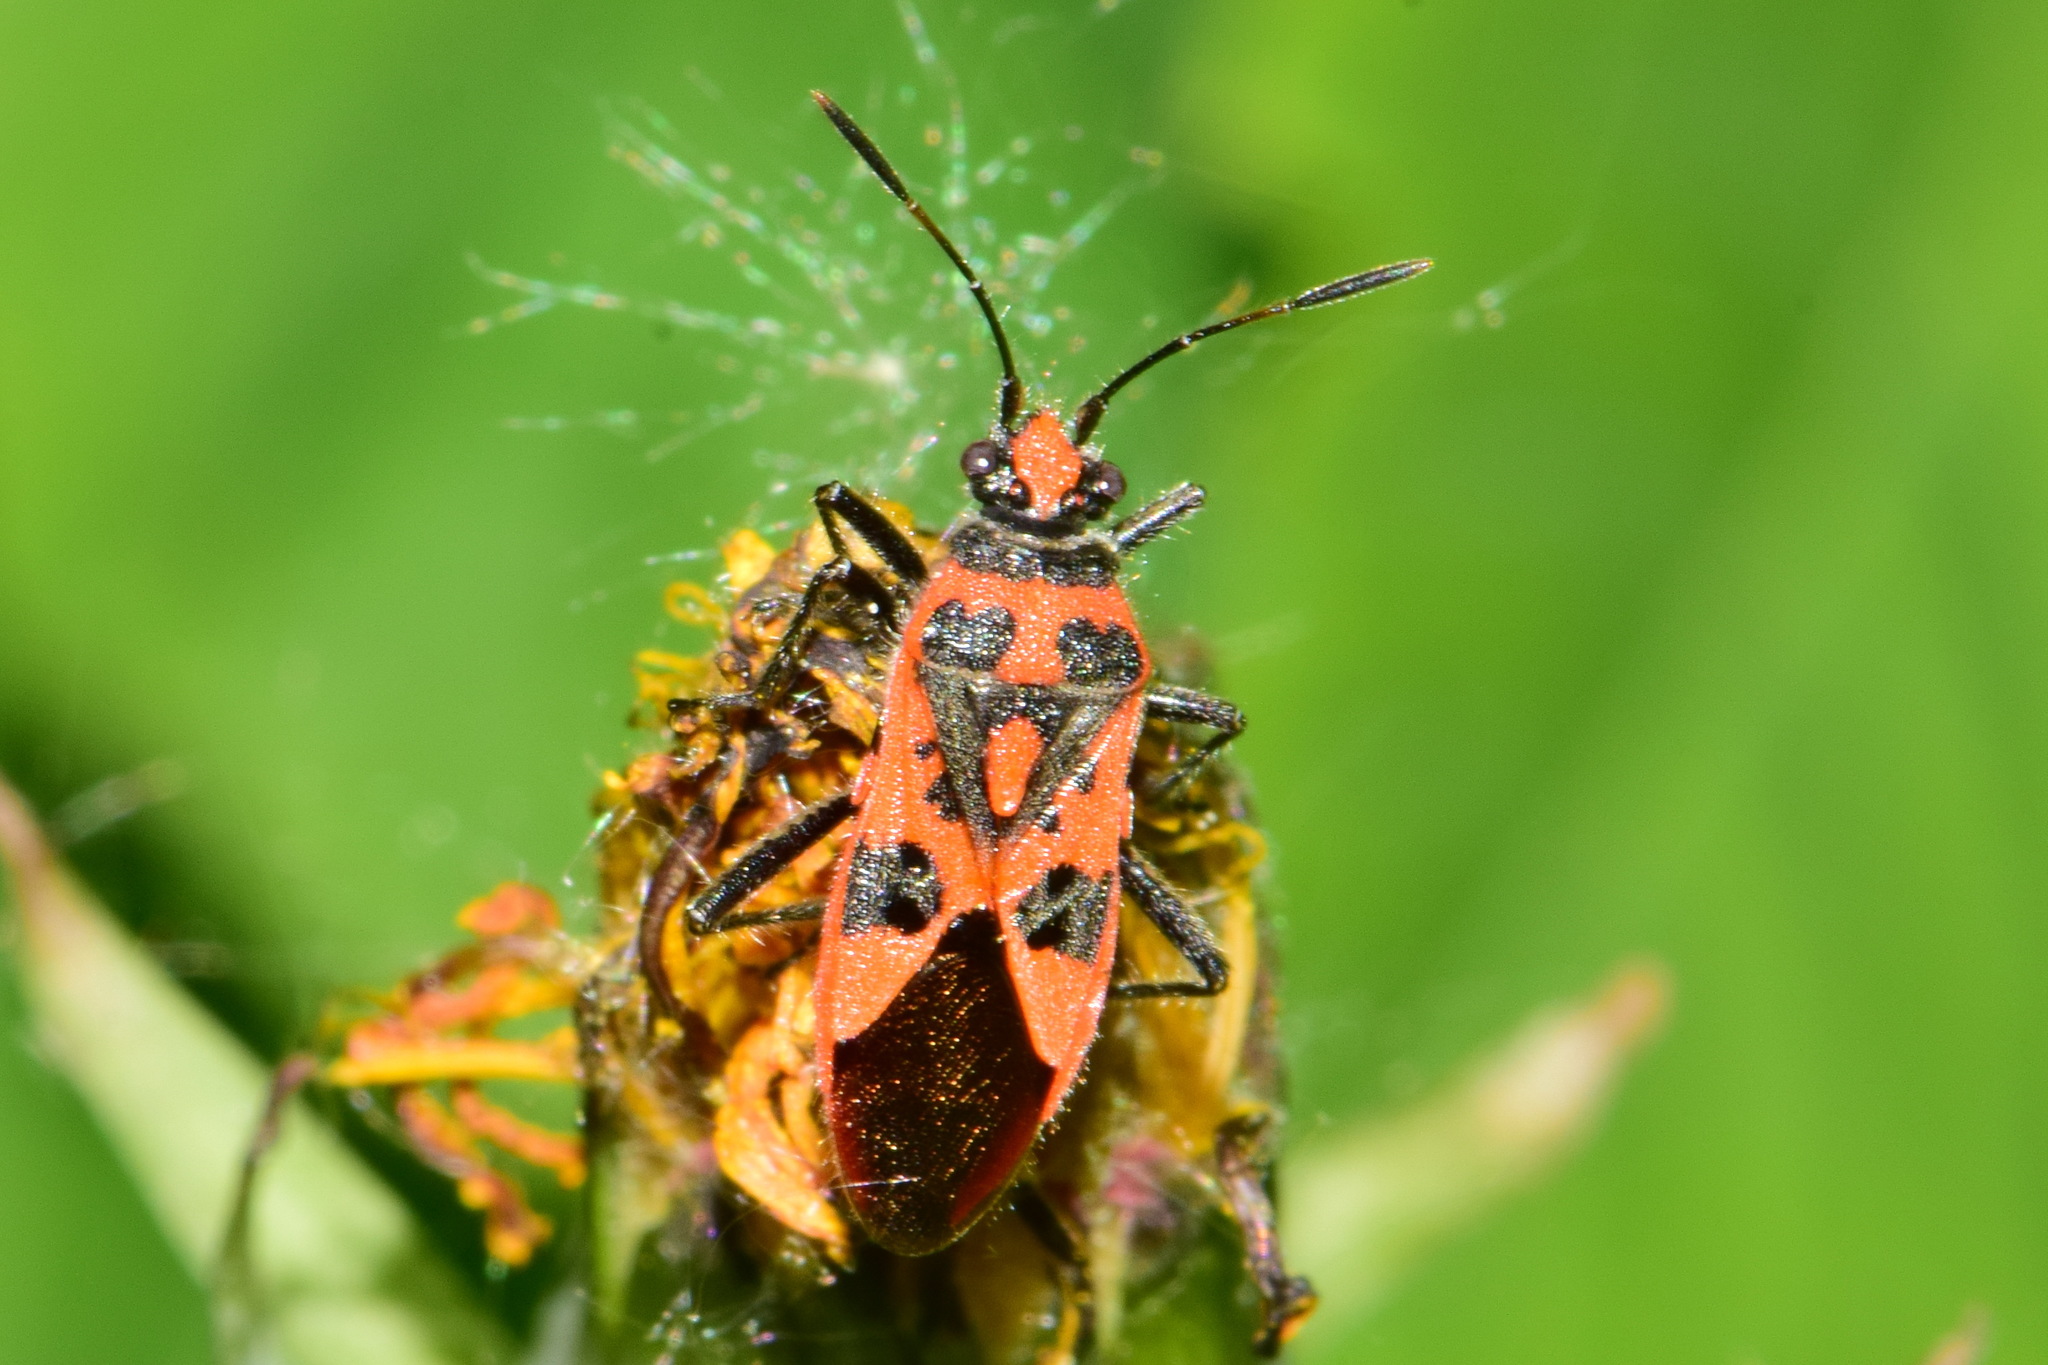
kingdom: Animalia
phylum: Arthropoda
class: Insecta
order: Hemiptera
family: Rhopalidae
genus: Corizus
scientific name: Corizus hyoscyami
